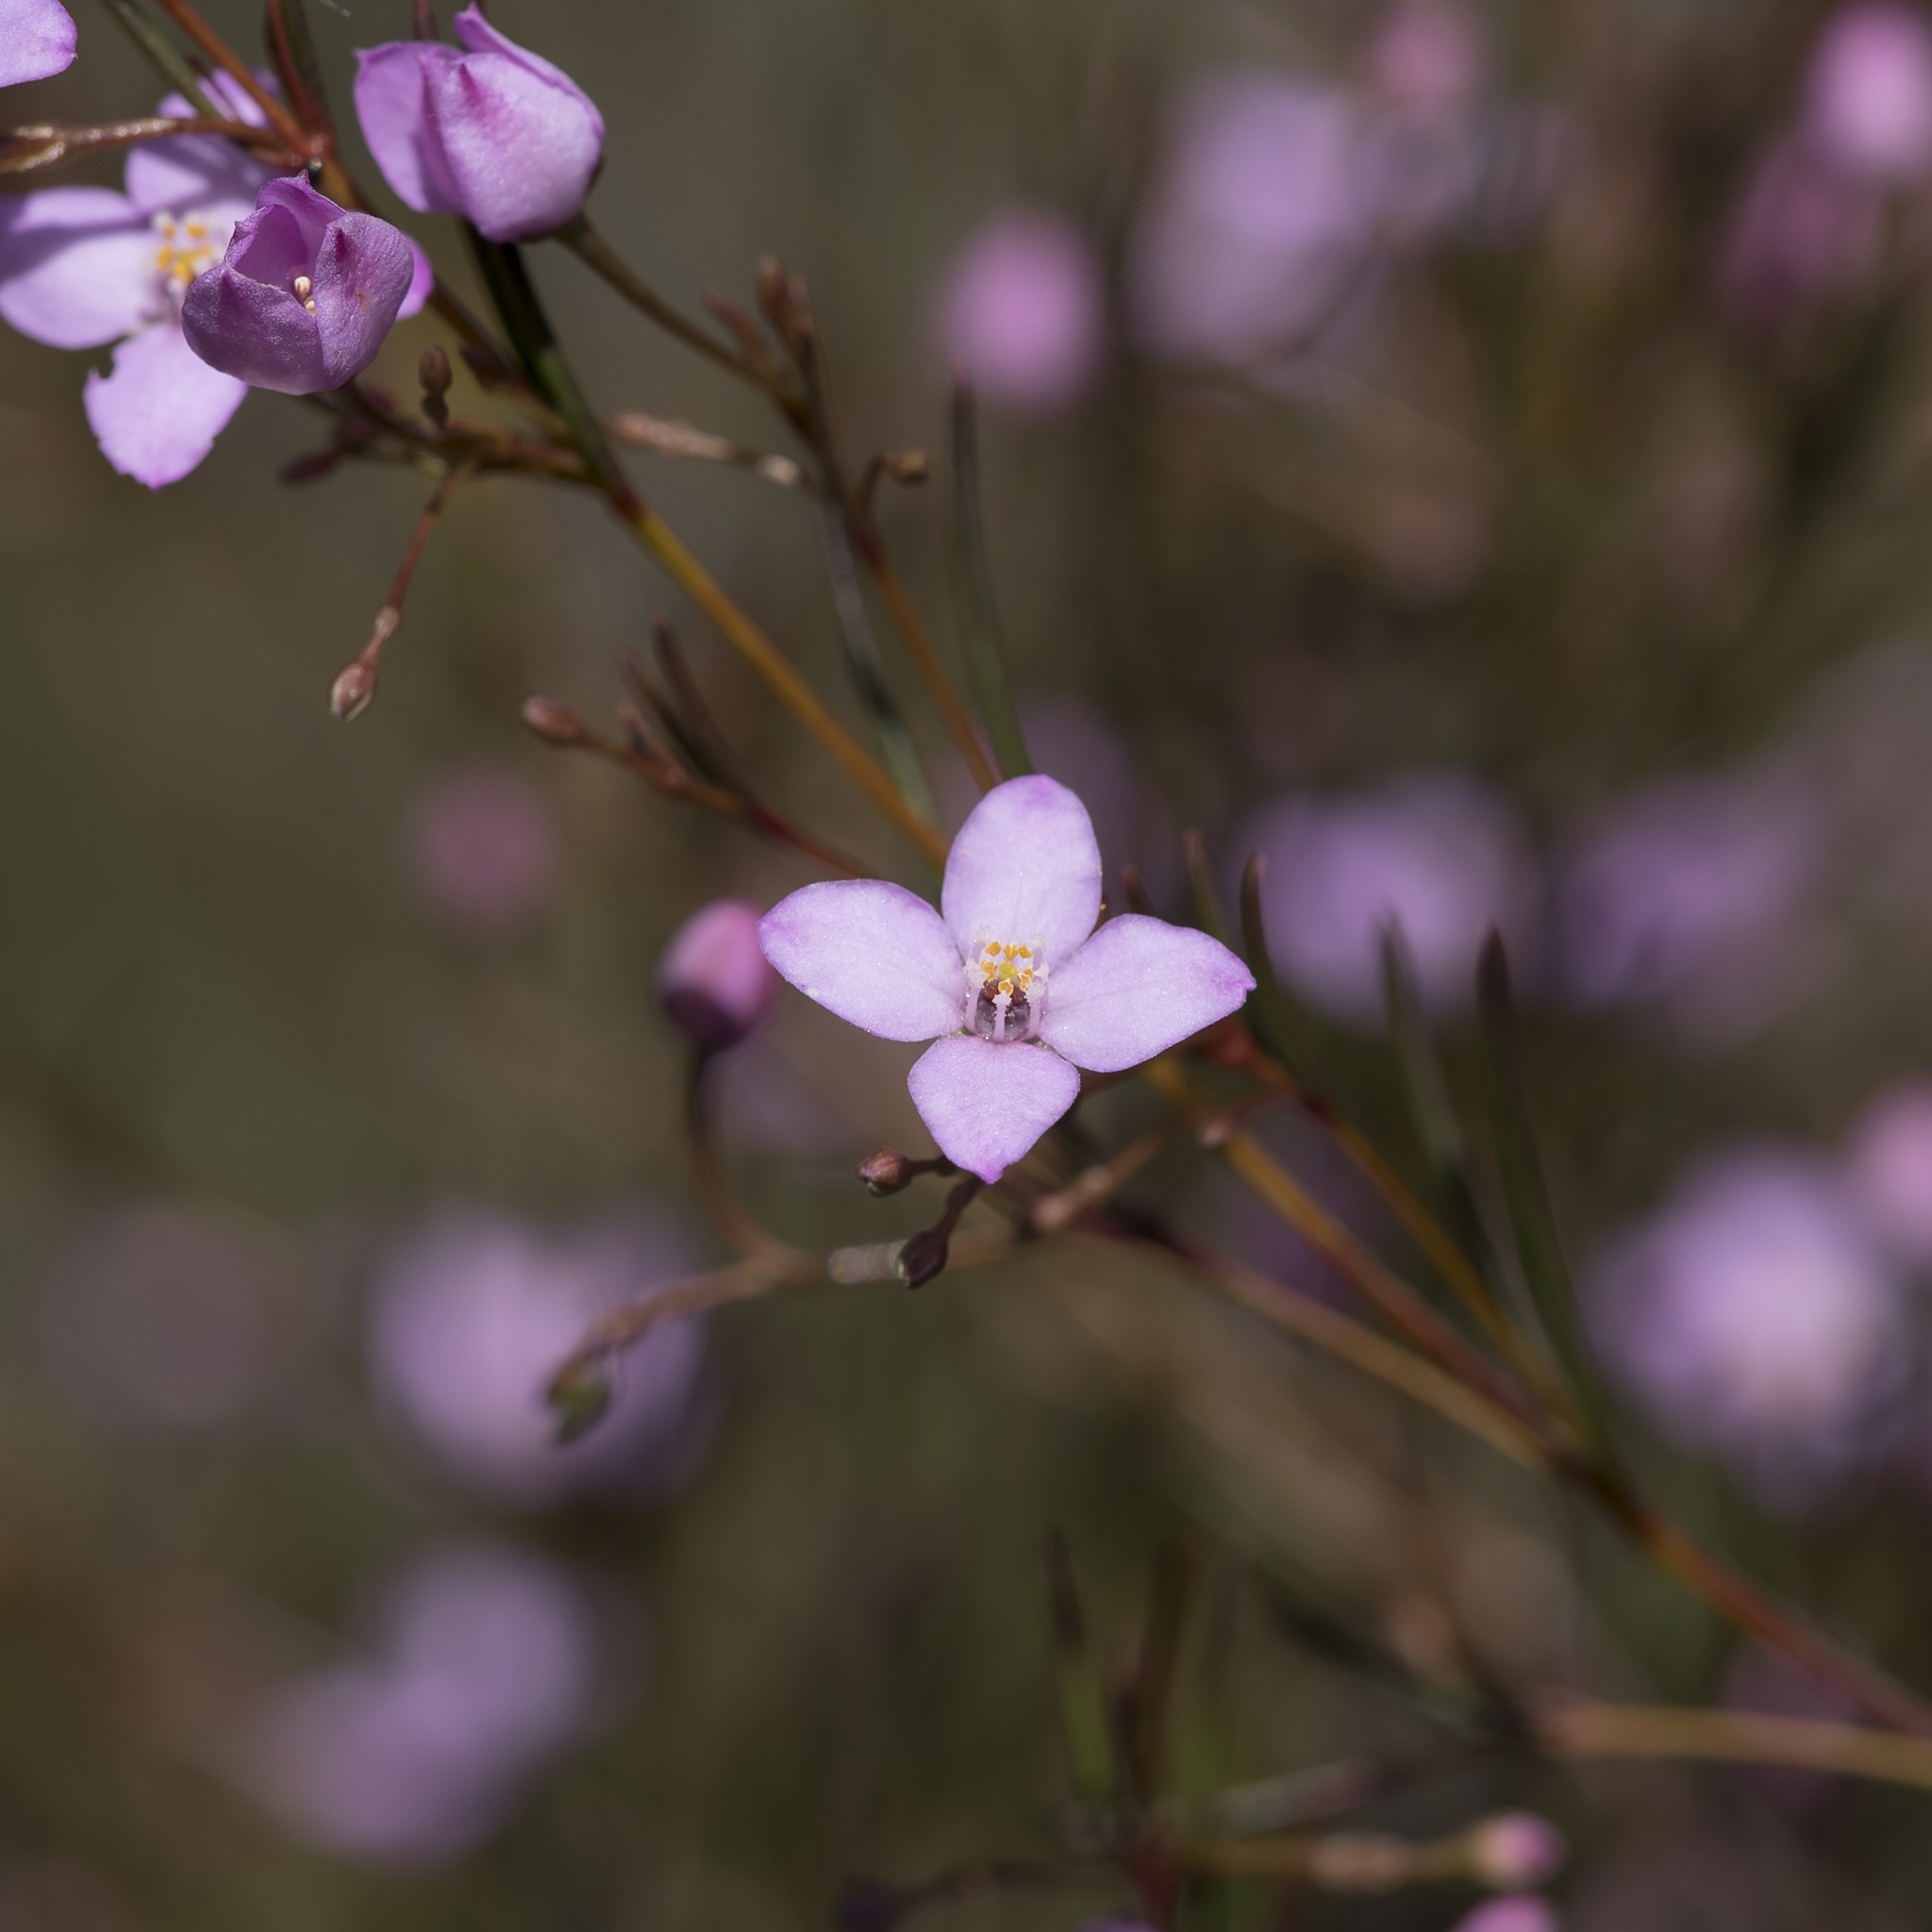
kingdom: Plantae
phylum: Tracheophyta
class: Magnoliopsida
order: Sapindales
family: Rutaceae
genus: Boronia
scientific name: Boronia filifolia
